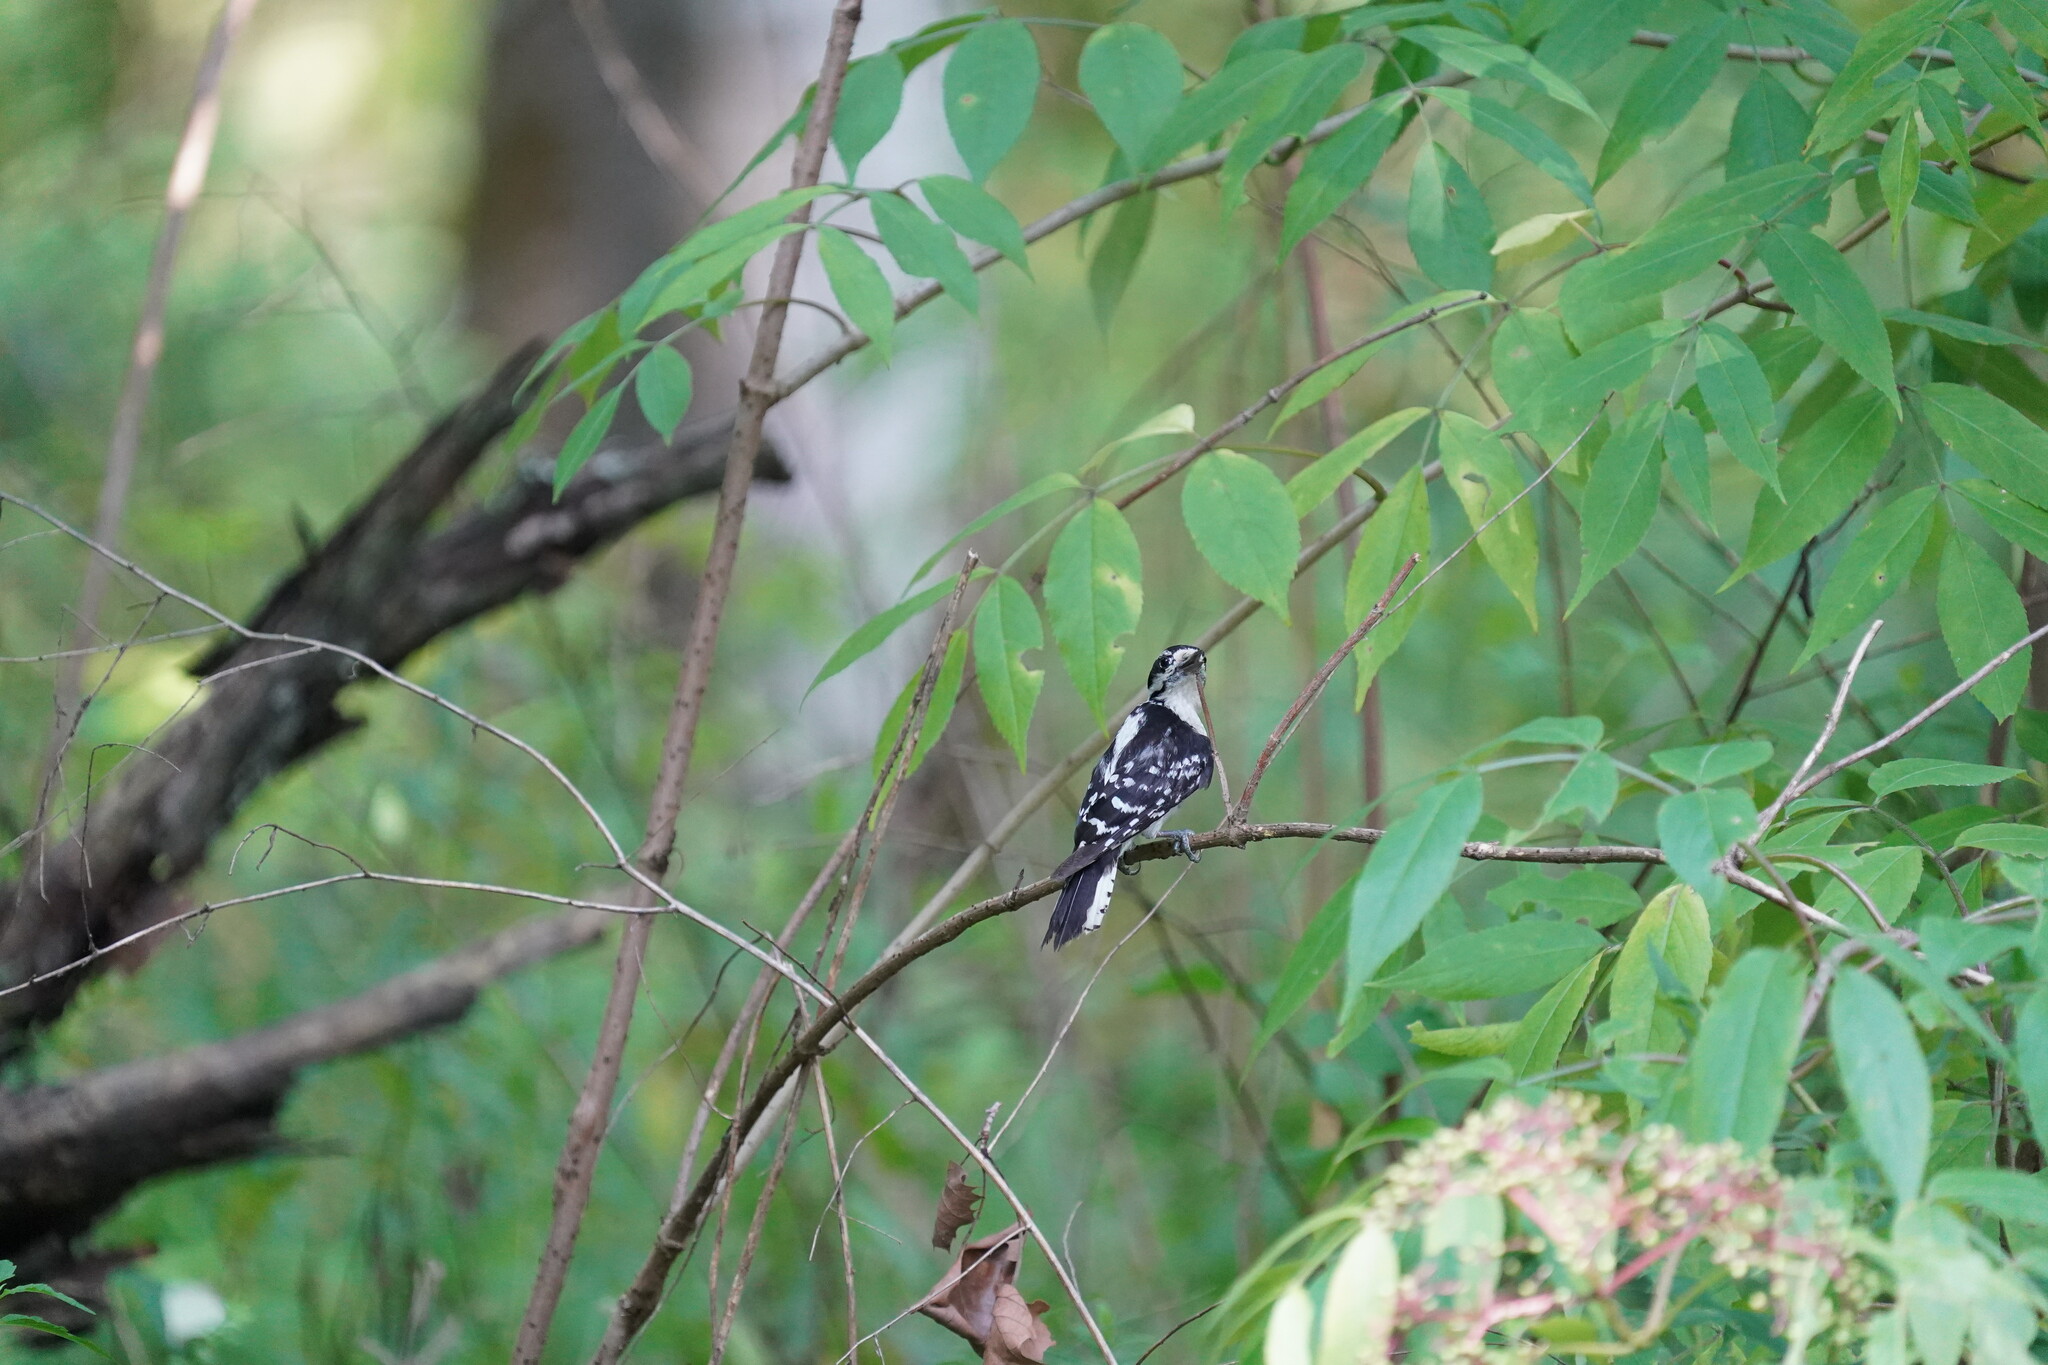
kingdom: Animalia
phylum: Chordata
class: Aves
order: Piciformes
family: Picidae
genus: Dryobates
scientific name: Dryobates pubescens
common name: Downy woodpecker
